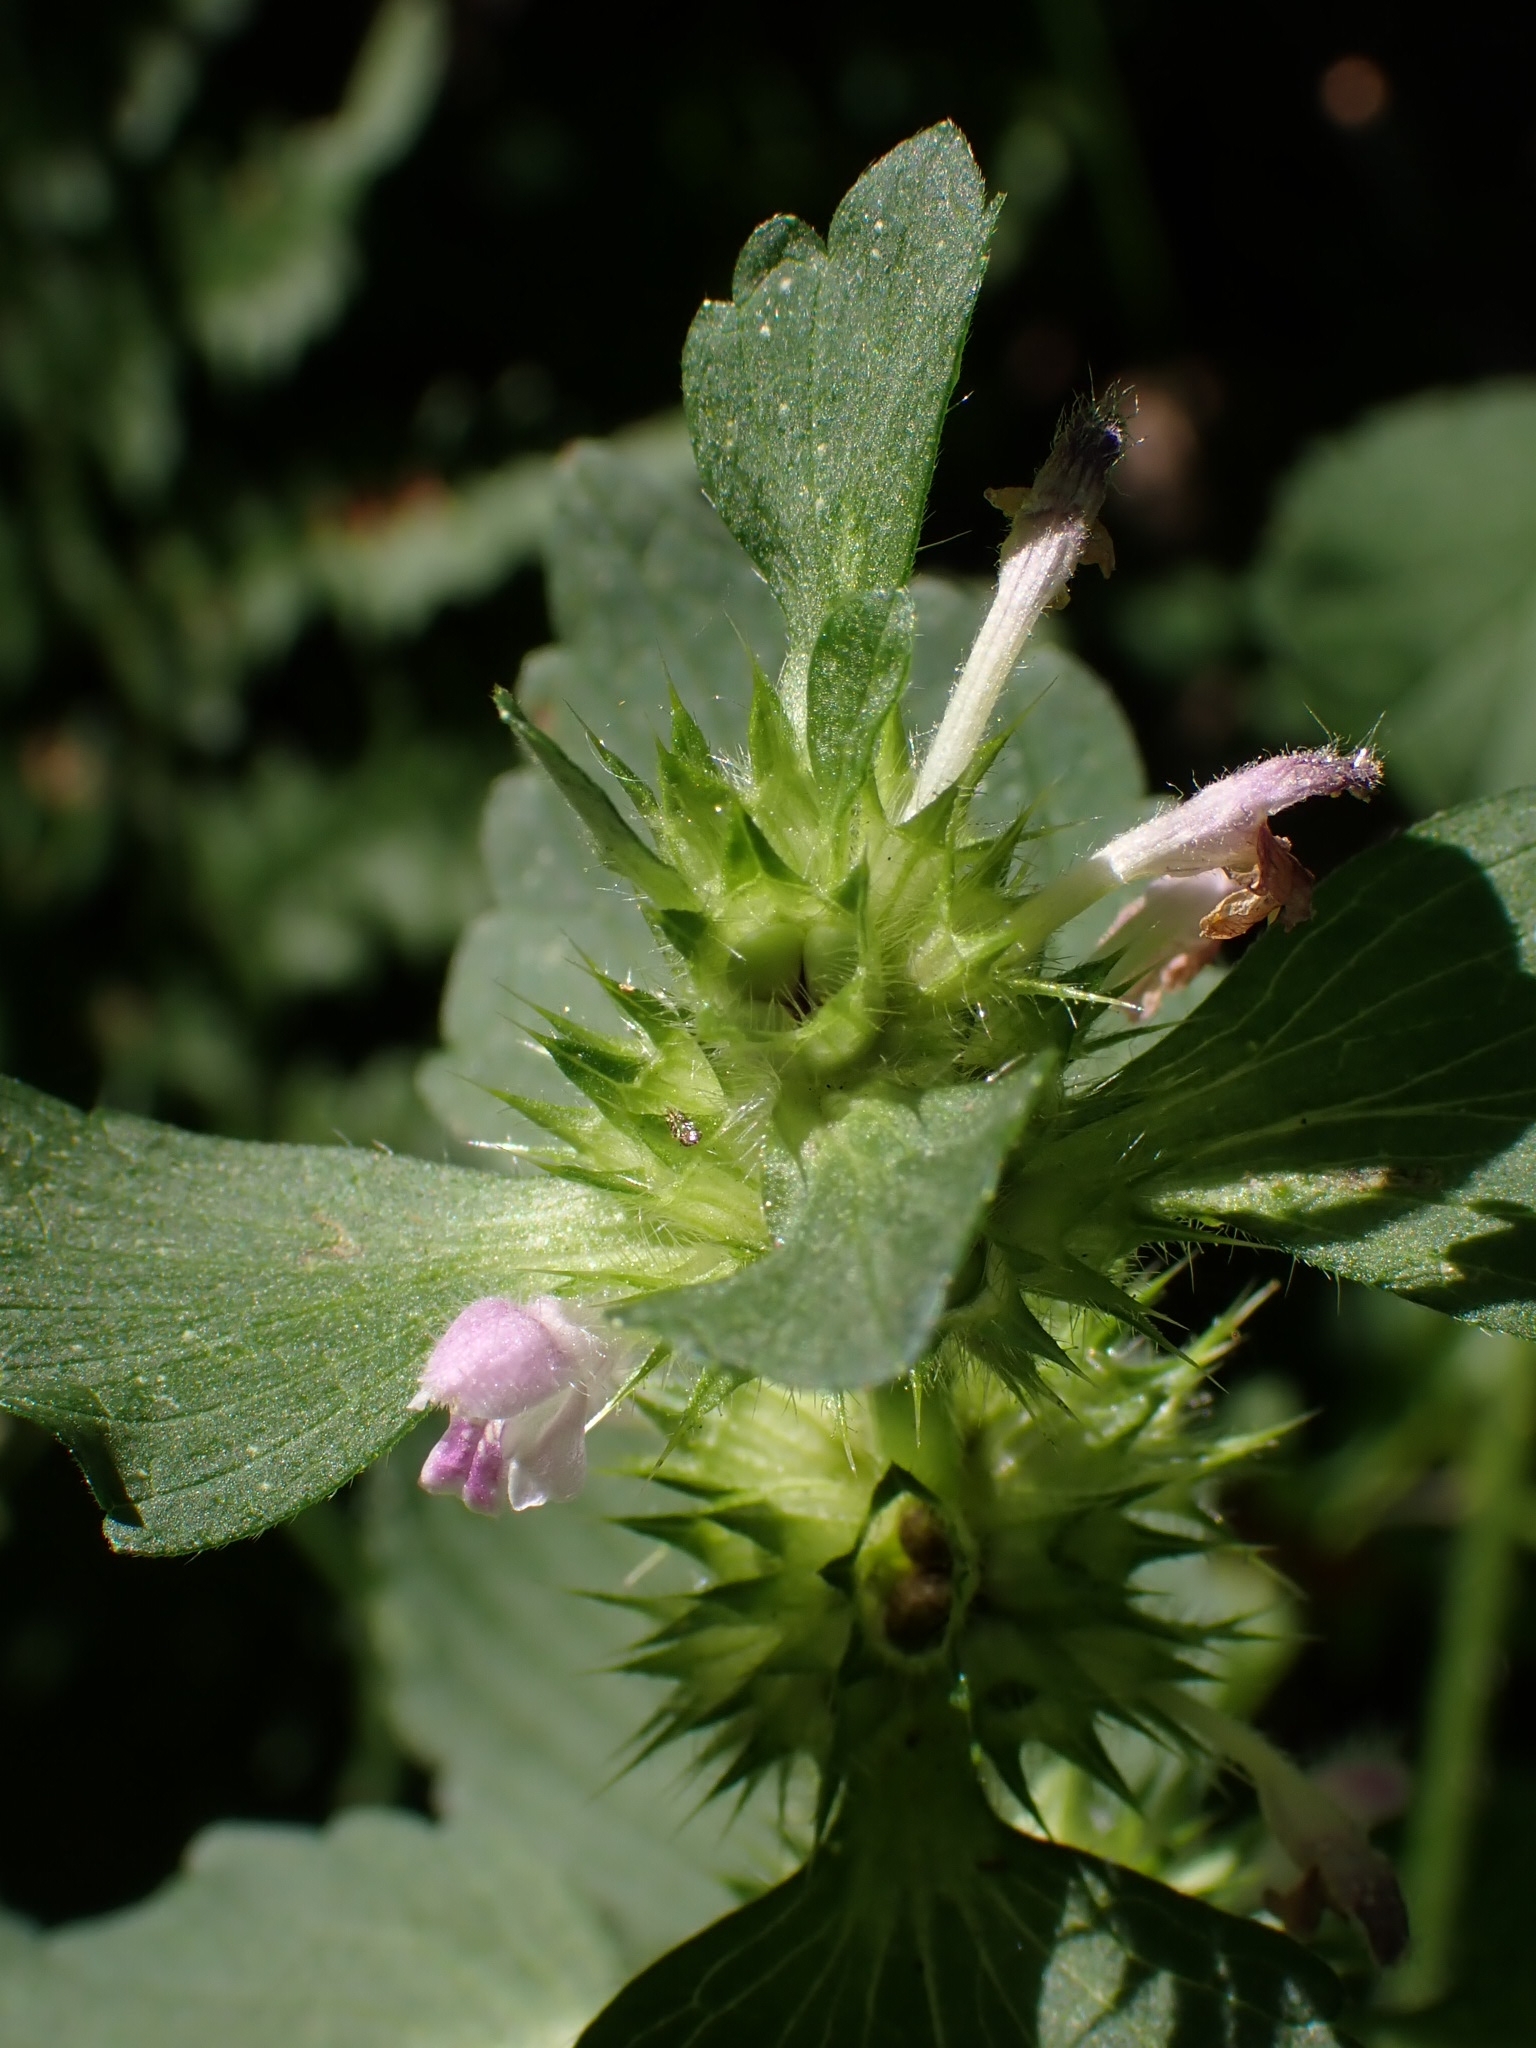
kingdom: Plantae
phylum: Tracheophyta
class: Magnoliopsida
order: Lamiales
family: Lamiaceae
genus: Galeopsis
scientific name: Galeopsis bifida
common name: Bifid hemp-nettle
